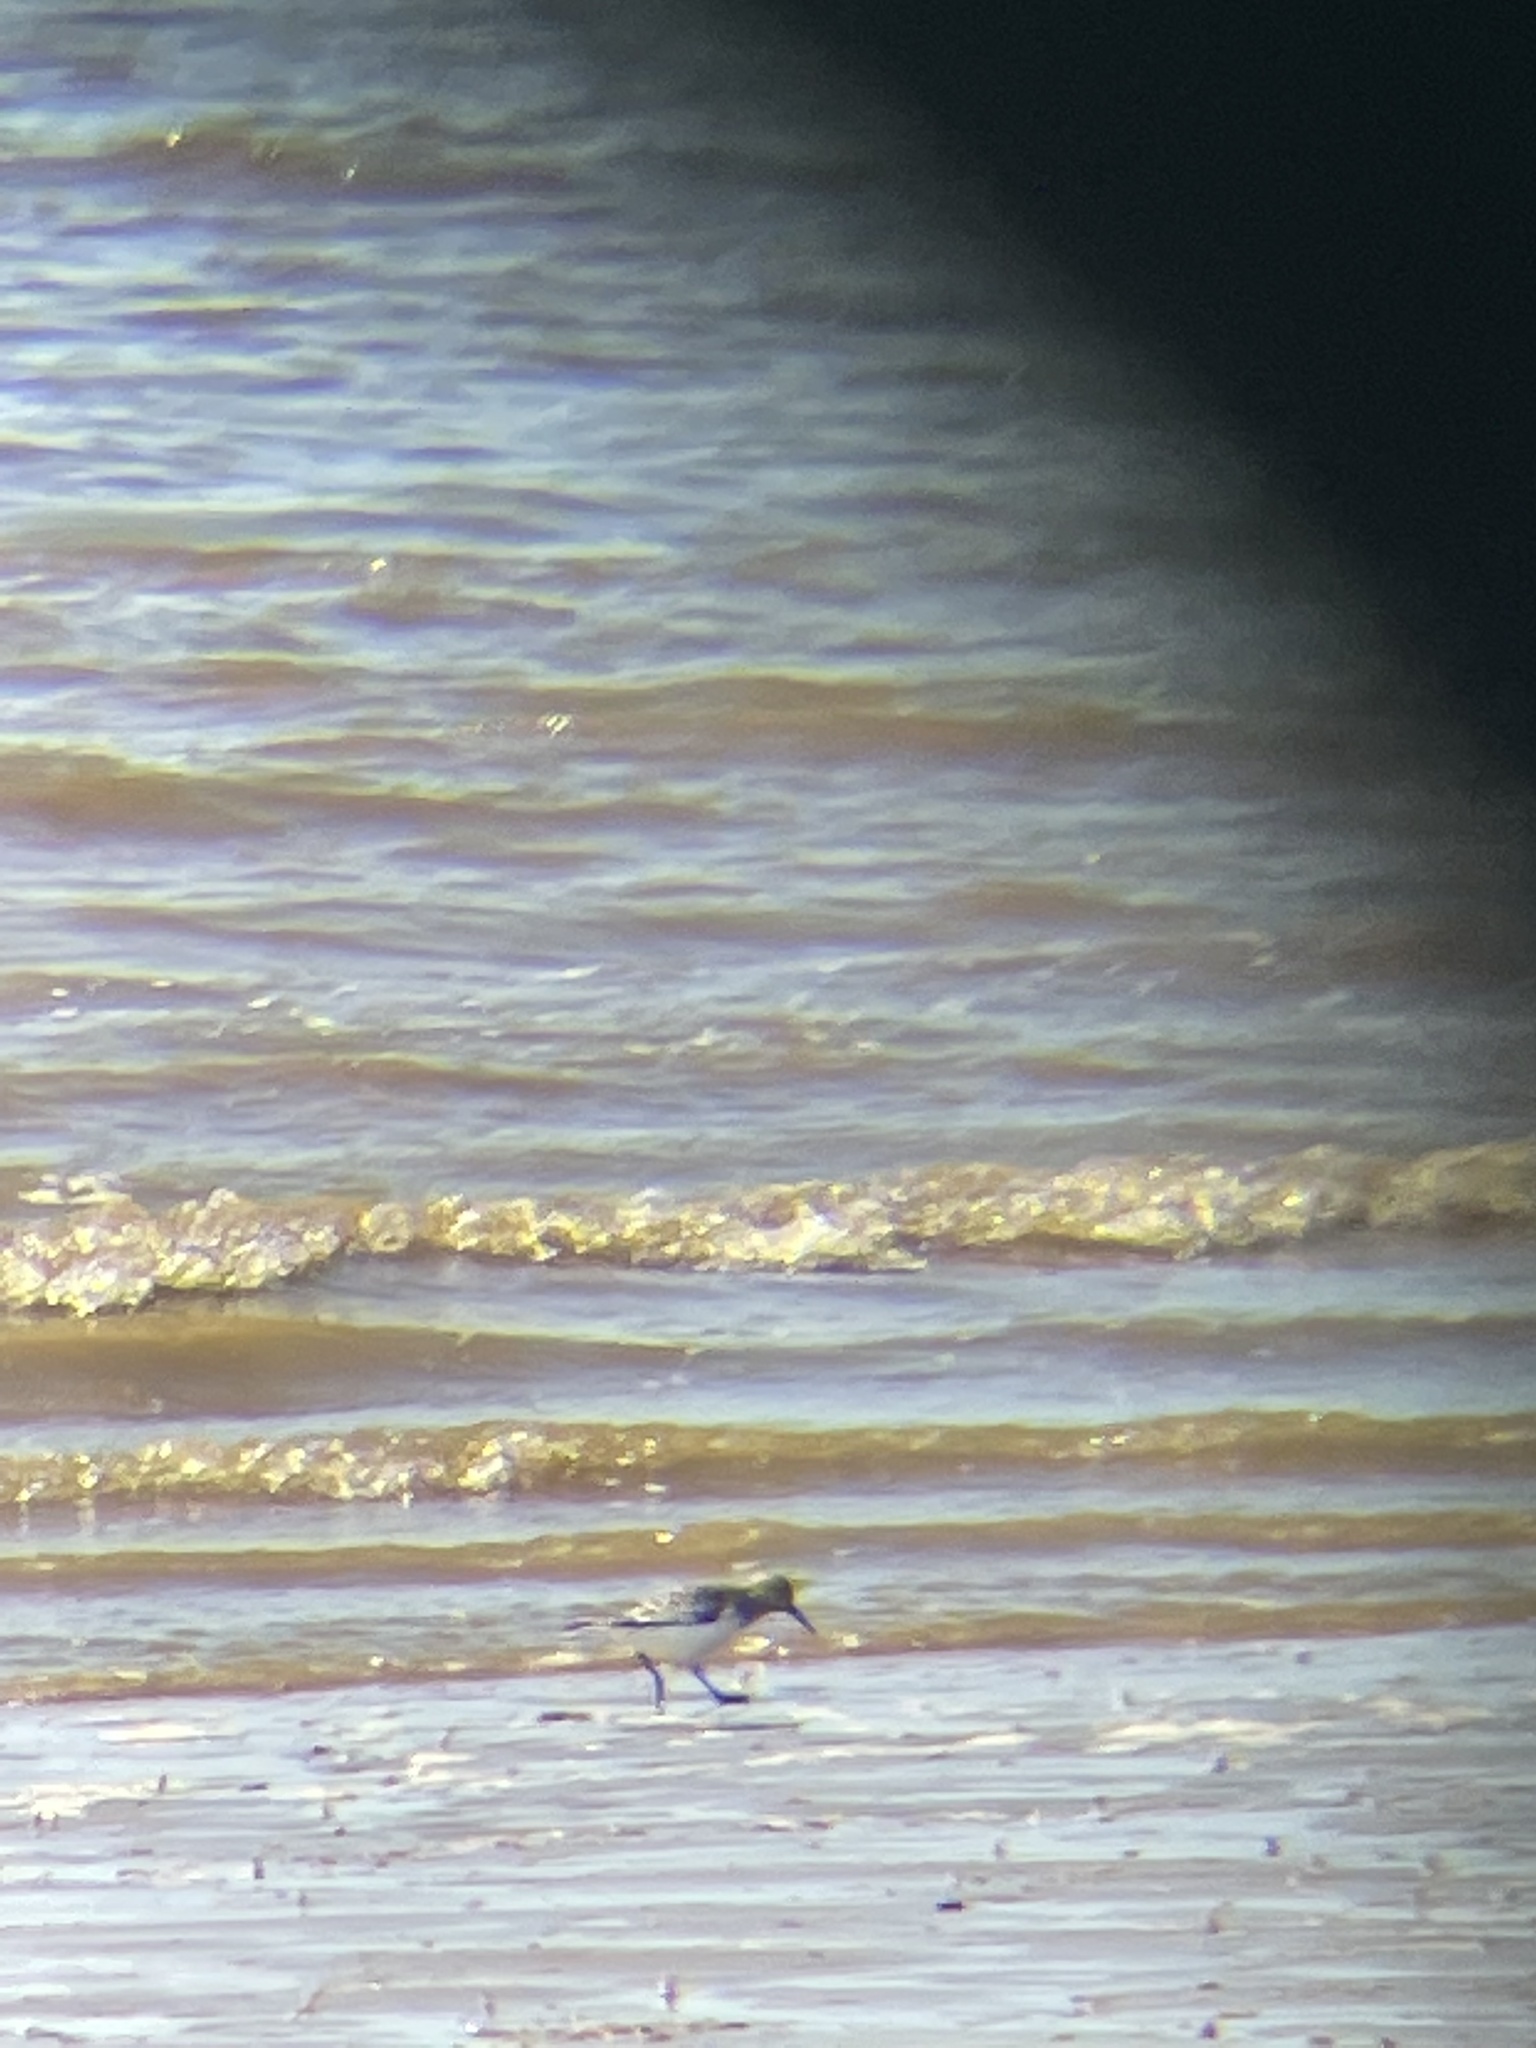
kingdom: Animalia
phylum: Chordata
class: Aves
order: Charadriiformes
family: Scolopacidae
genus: Calidris
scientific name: Calidris alba
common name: Sanderling
